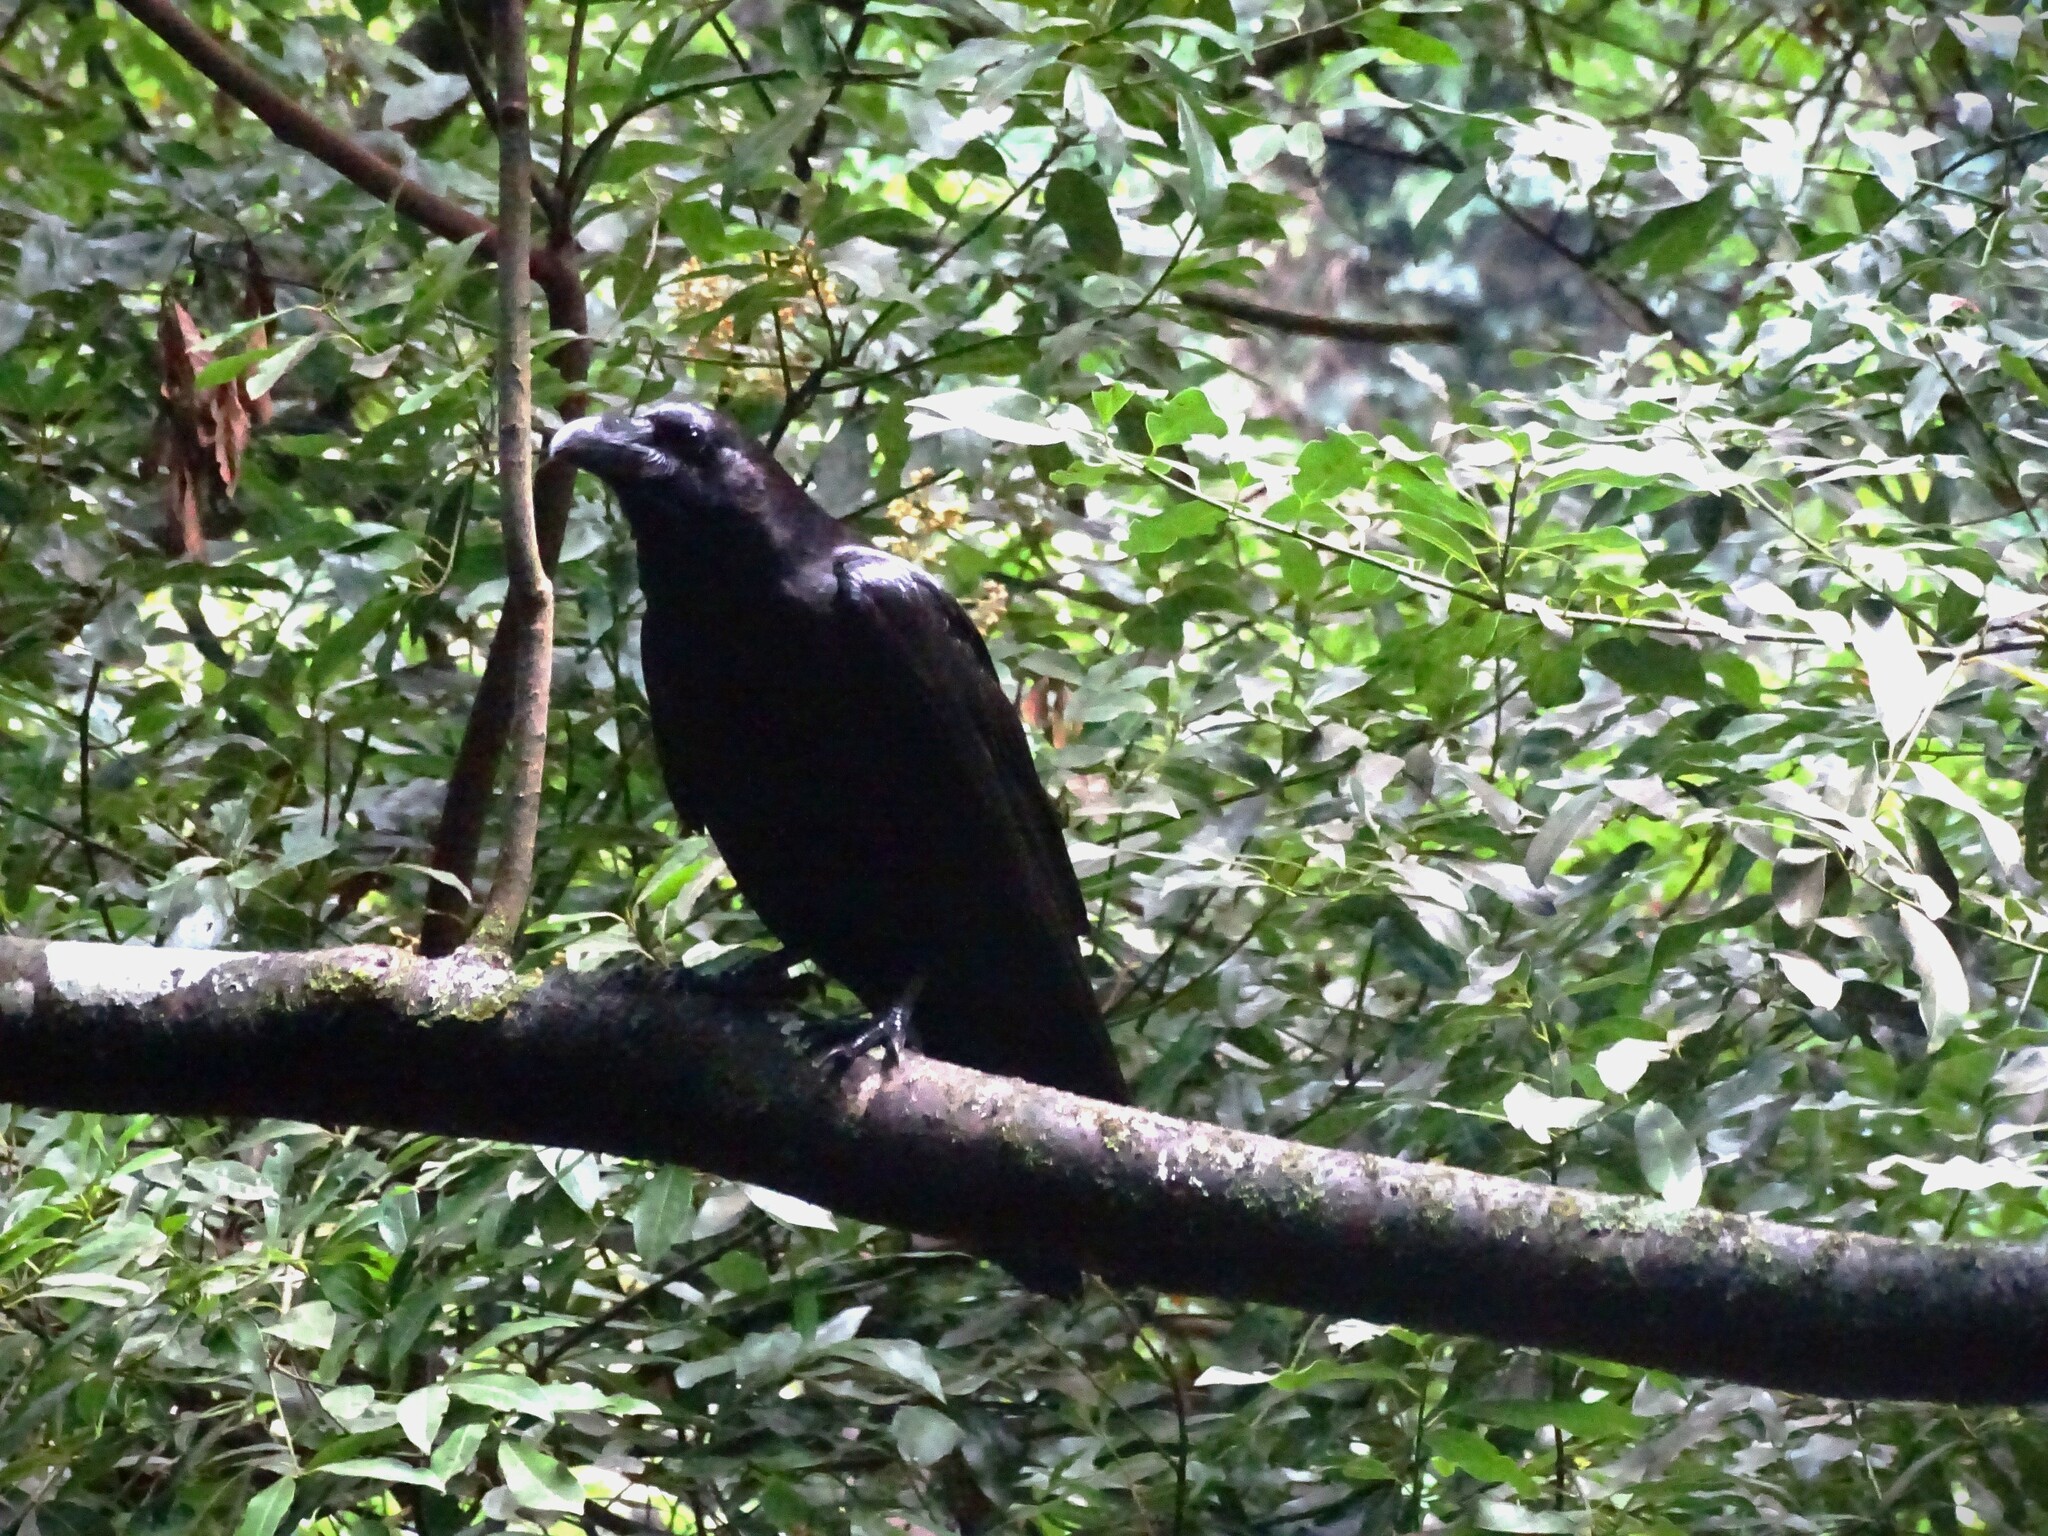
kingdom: Animalia
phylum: Chordata
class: Aves
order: Passeriformes
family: Corvidae
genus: Corvus
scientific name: Corvus corax
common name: Common raven
